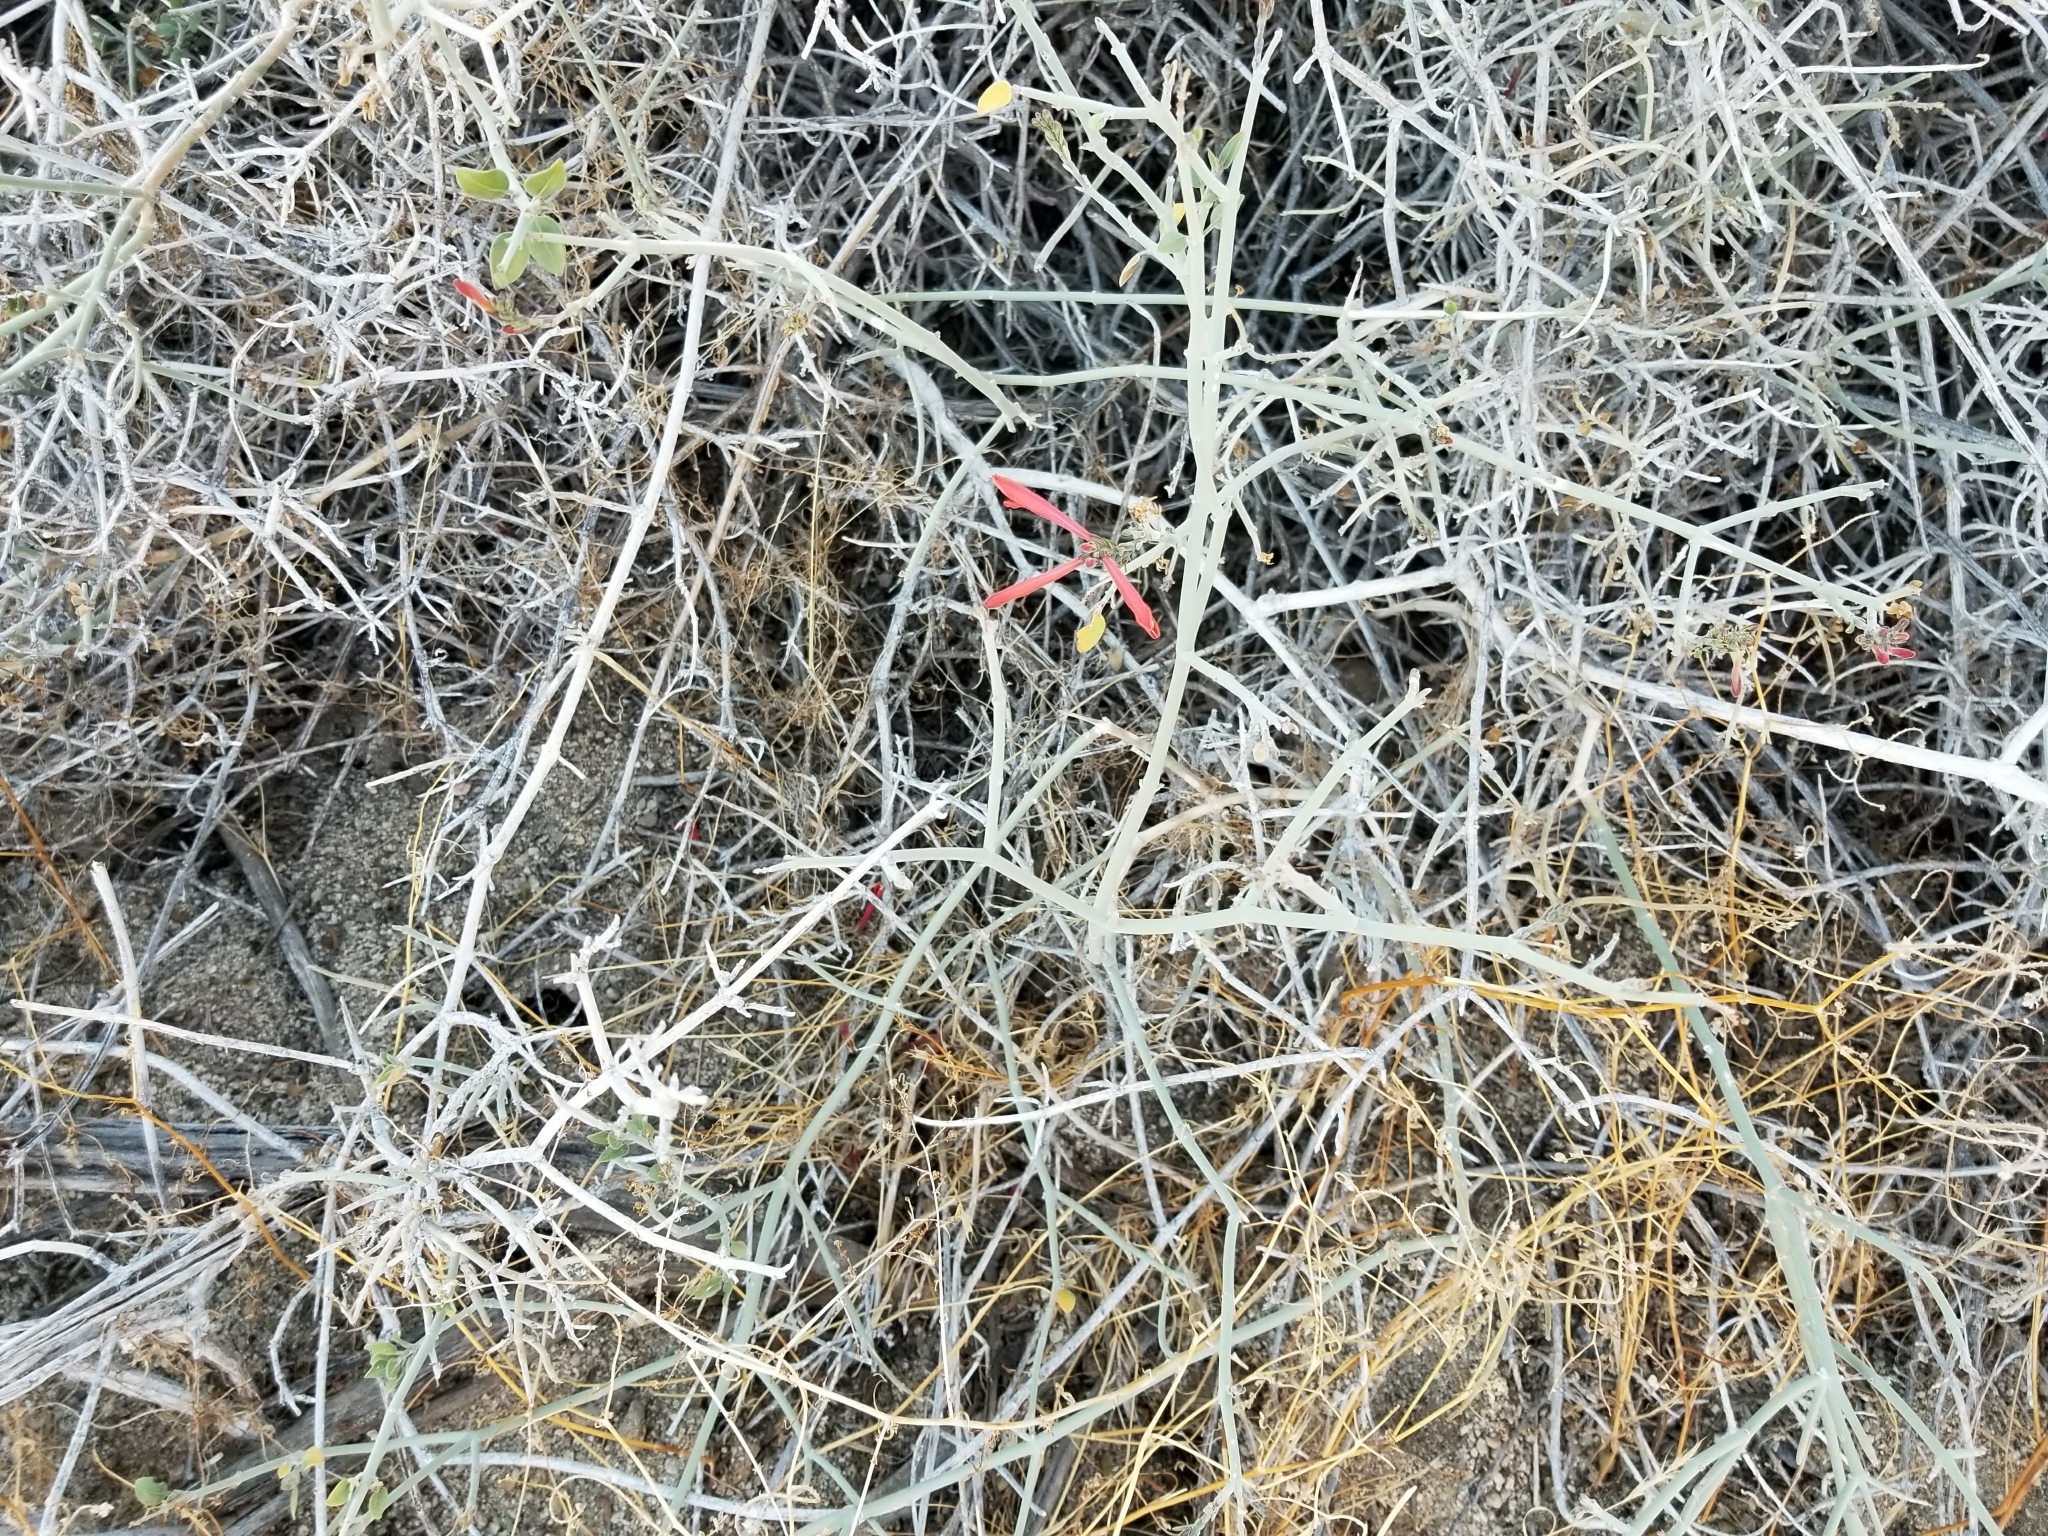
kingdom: Plantae
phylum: Tracheophyta
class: Magnoliopsida
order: Lamiales
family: Acanthaceae
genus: Justicia
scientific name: Justicia californica
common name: Chuparosa-honeysuckle
